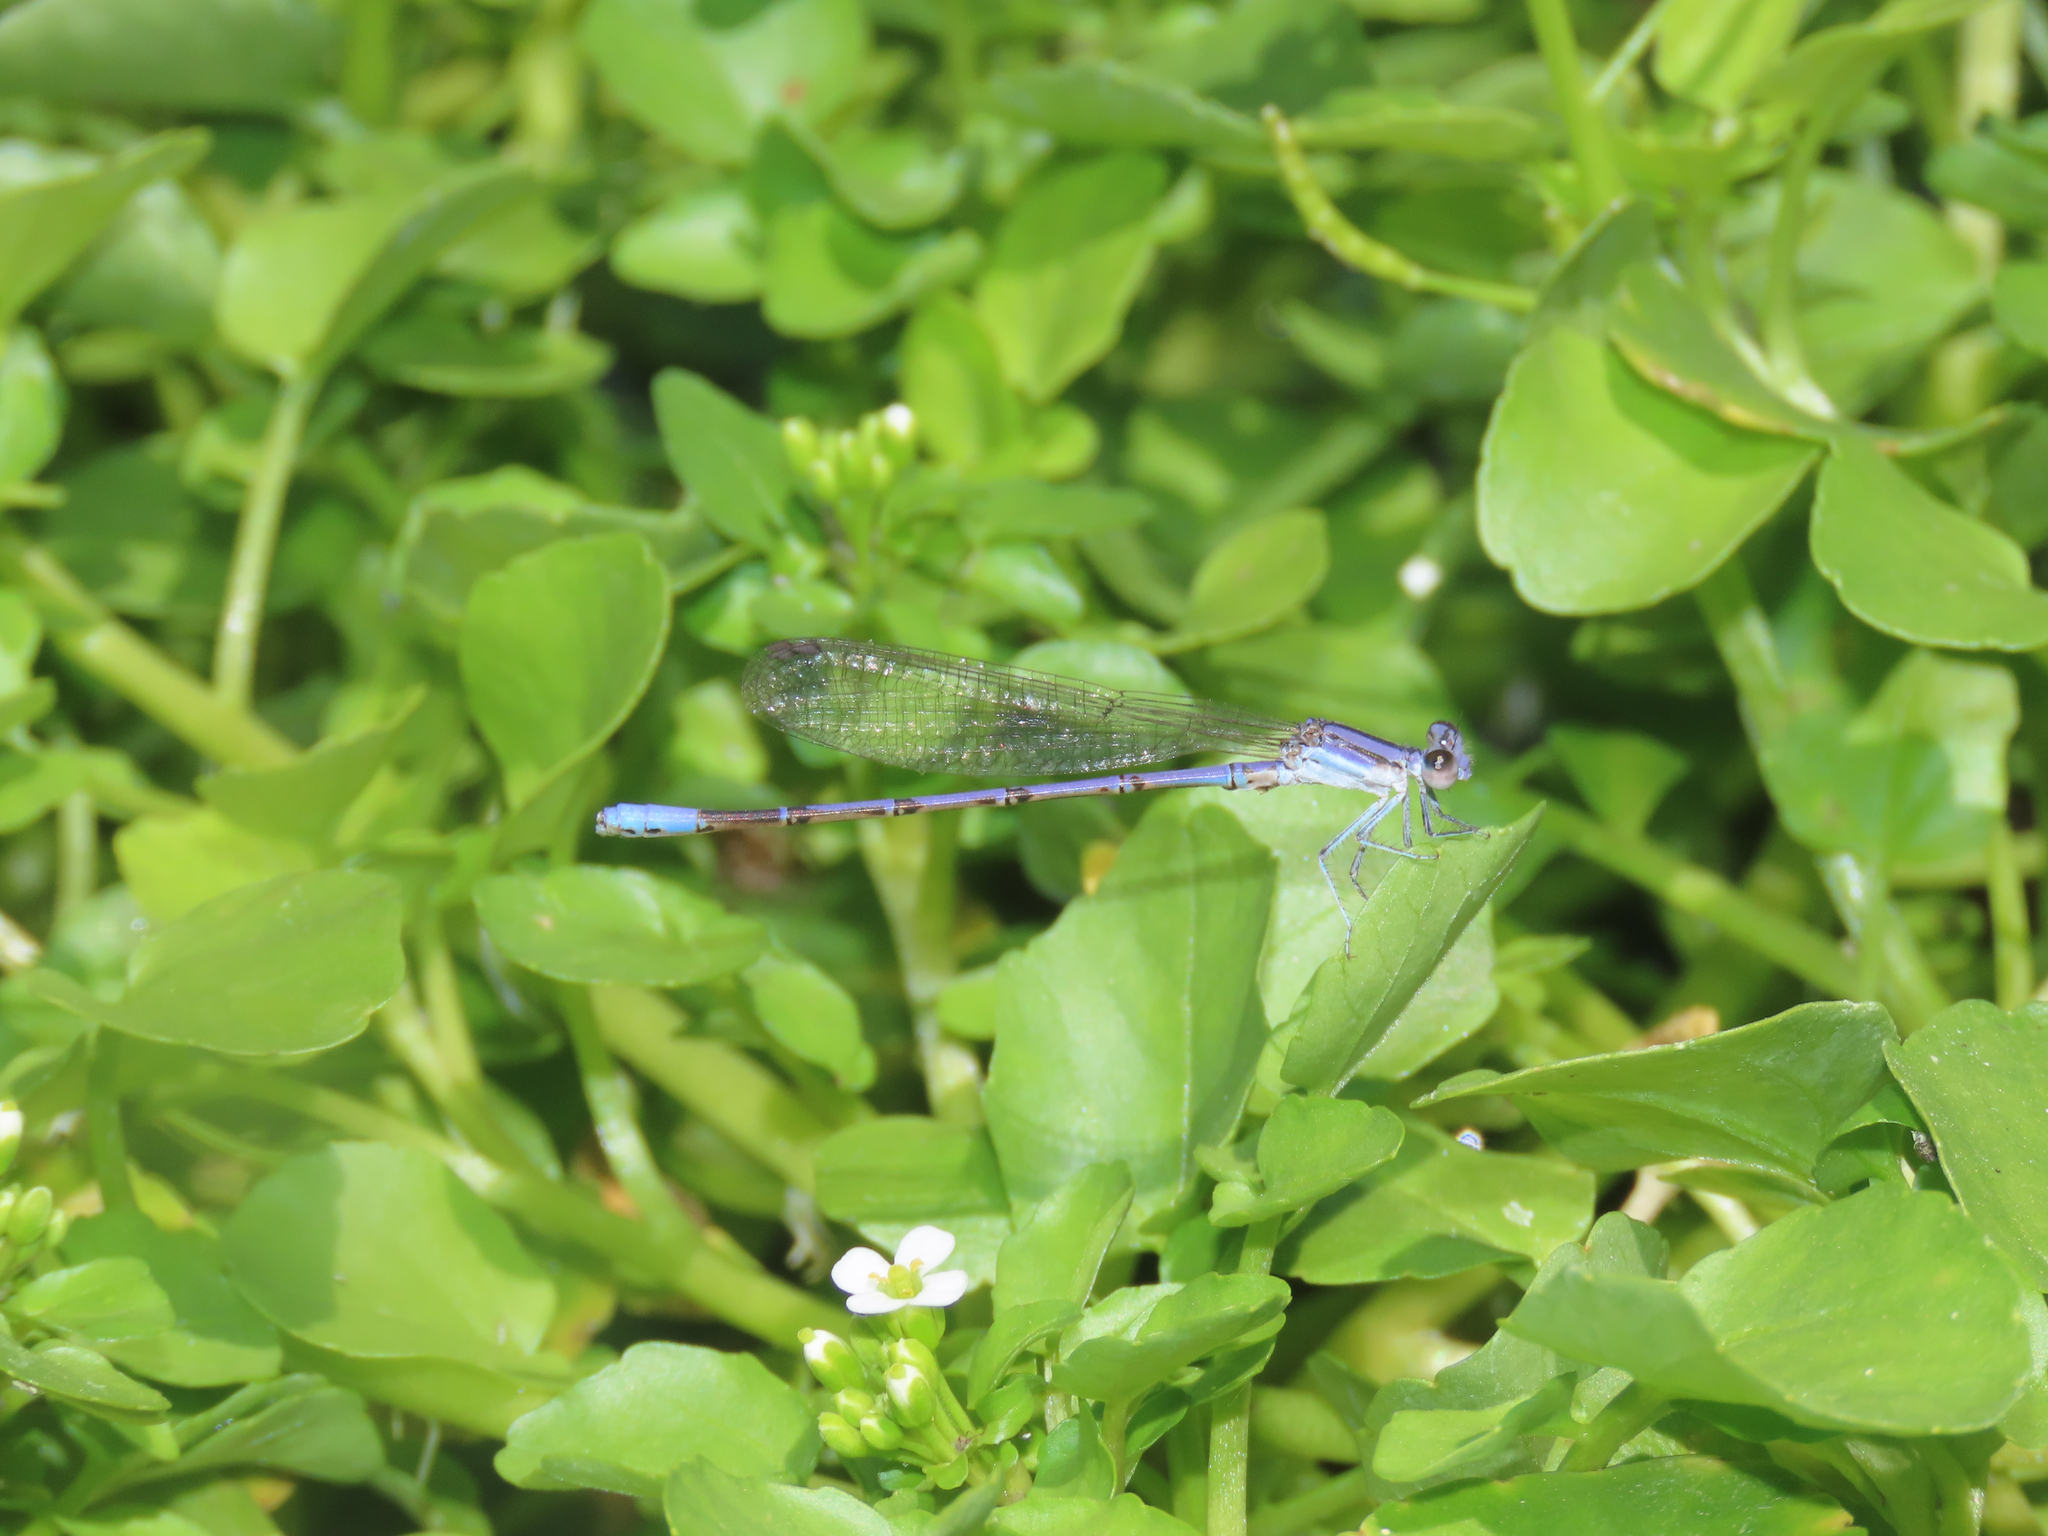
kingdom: Animalia
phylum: Arthropoda
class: Insecta
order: Odonata
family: Coenagrionidae
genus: Argia
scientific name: Argia hinei
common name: Lavender dancer
